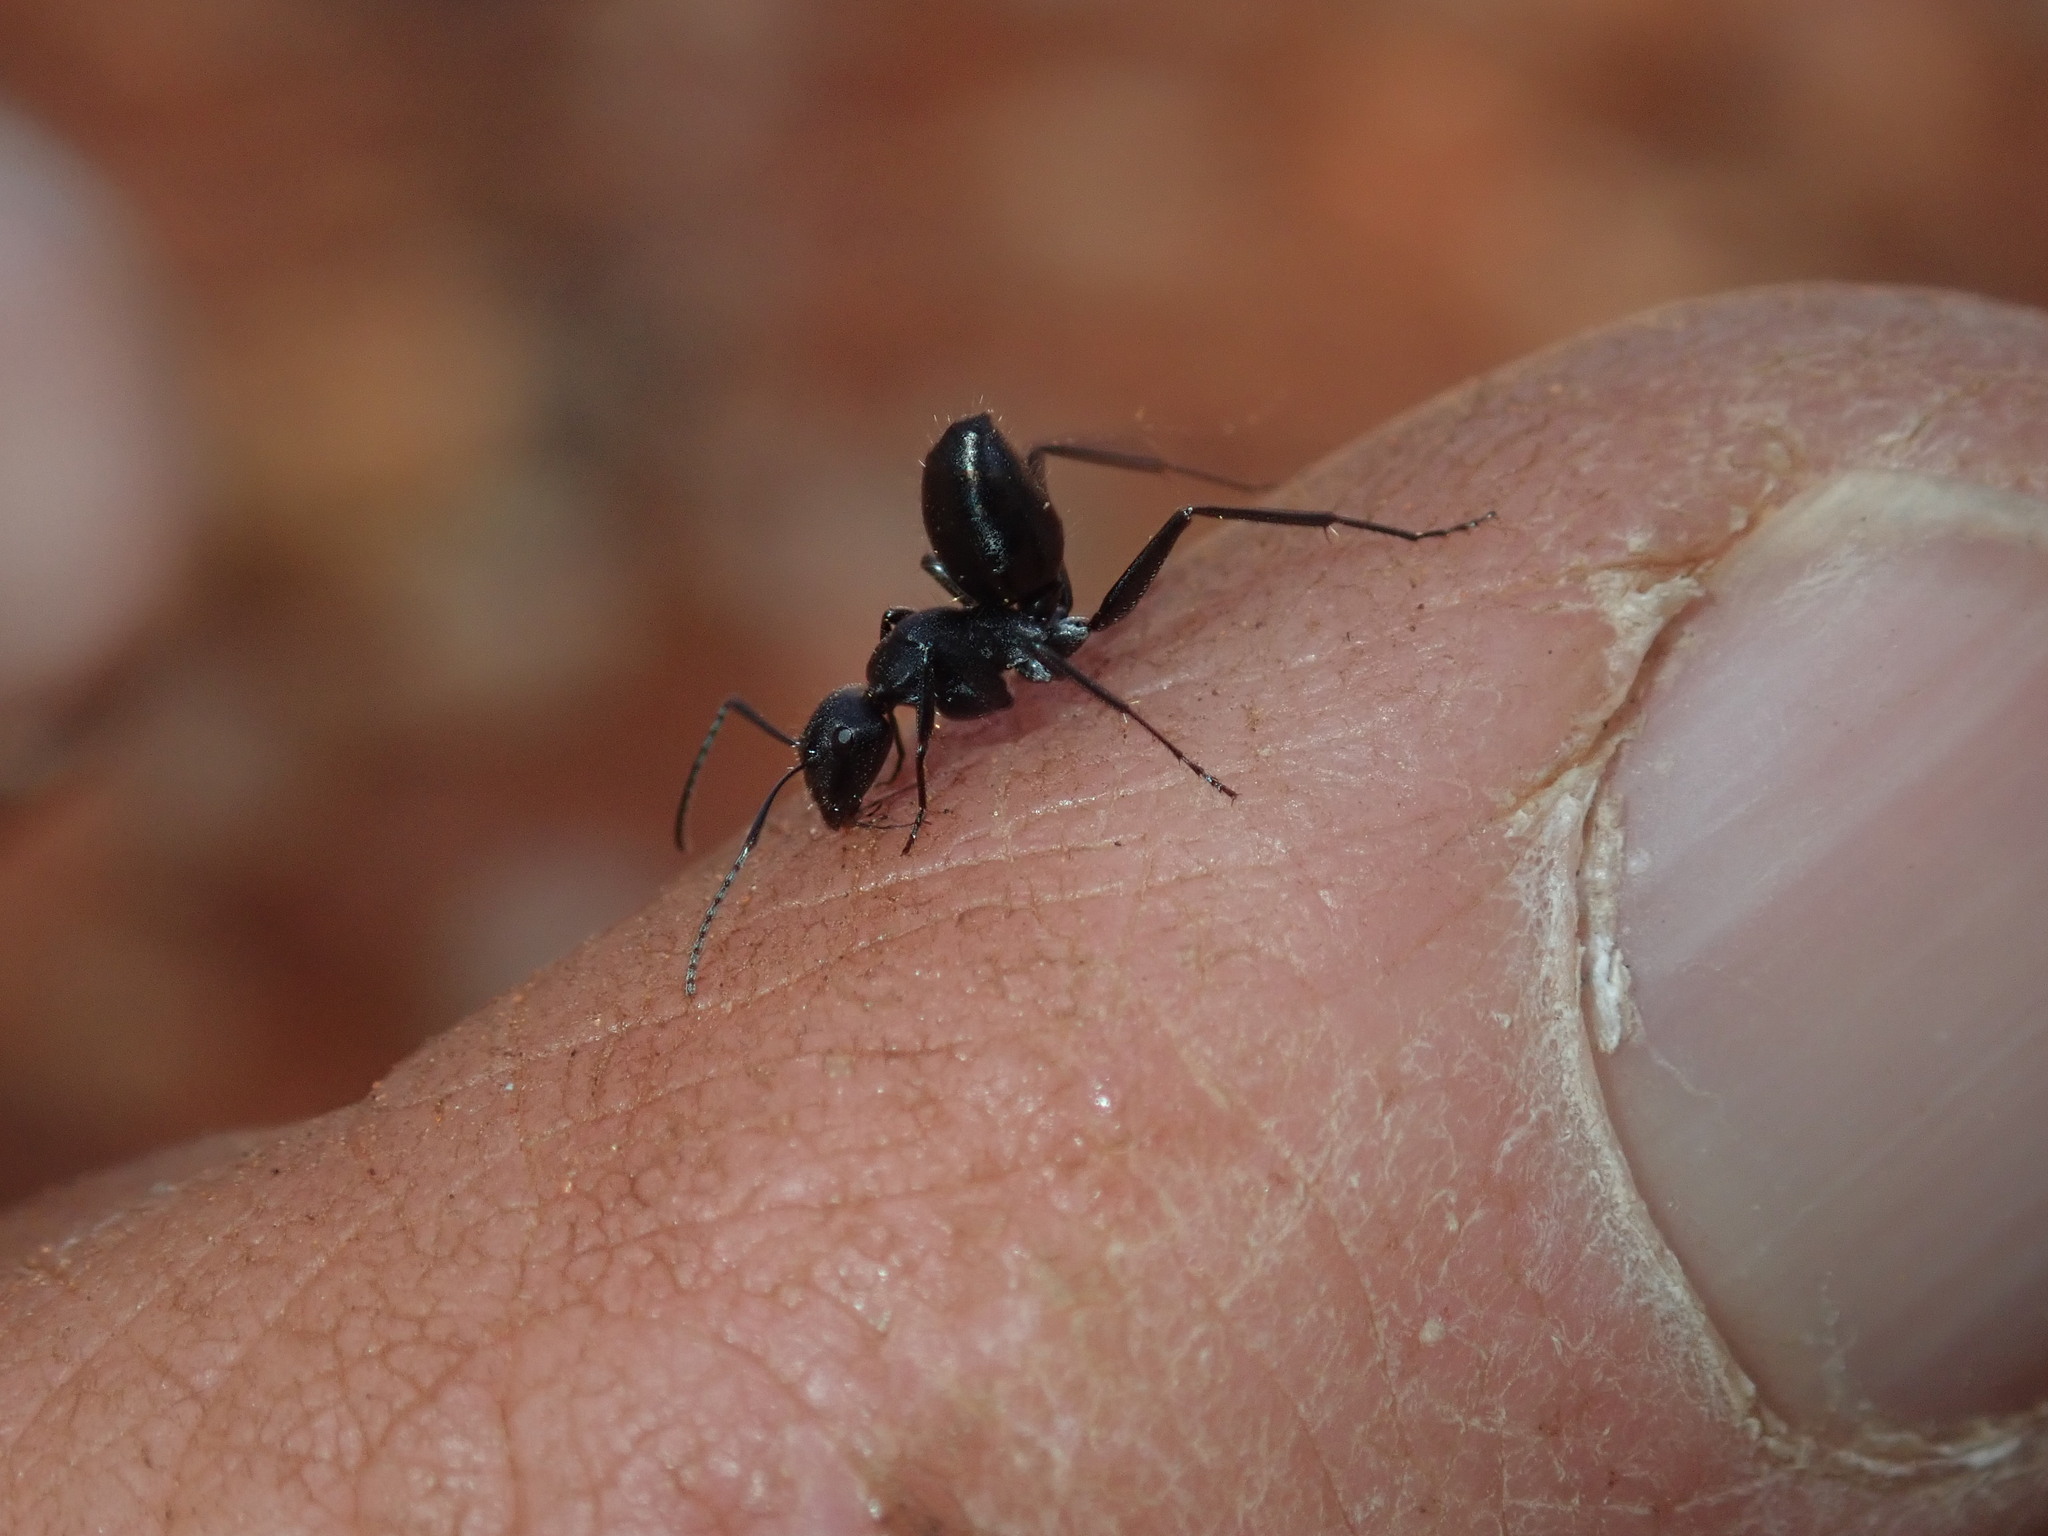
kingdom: Animalia
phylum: Arthropoda
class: Insecta
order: Hymenoptera
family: Formicidae
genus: Camponotus
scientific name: Camponotus cinereus
